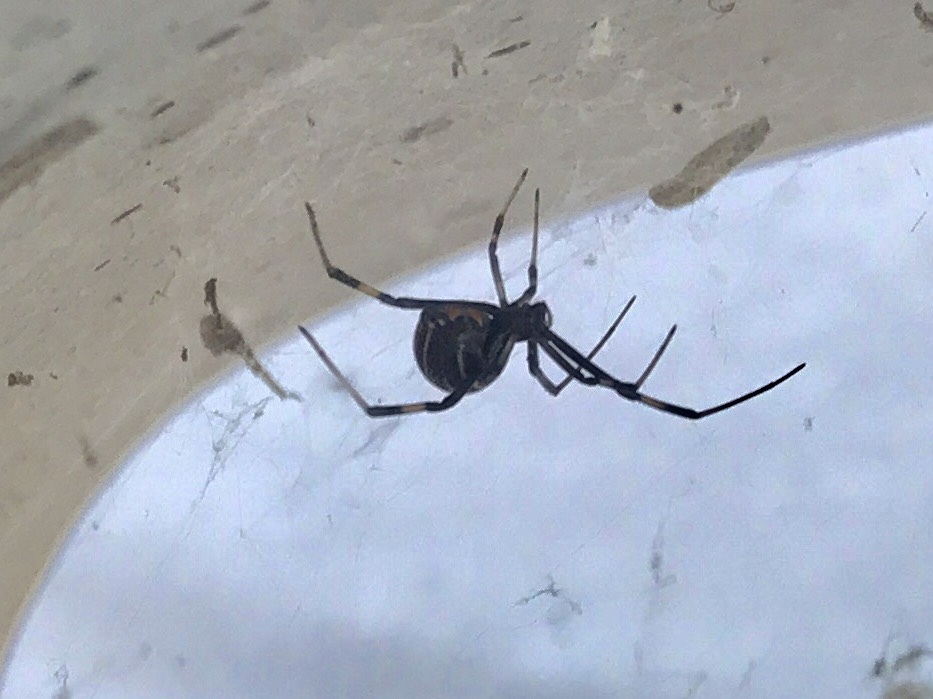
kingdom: Animalia
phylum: Arthropoda
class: Arachnida
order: Araneae
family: Theridiidae
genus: Latrodectus
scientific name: Latrodectus hesperus
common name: Western black widow
